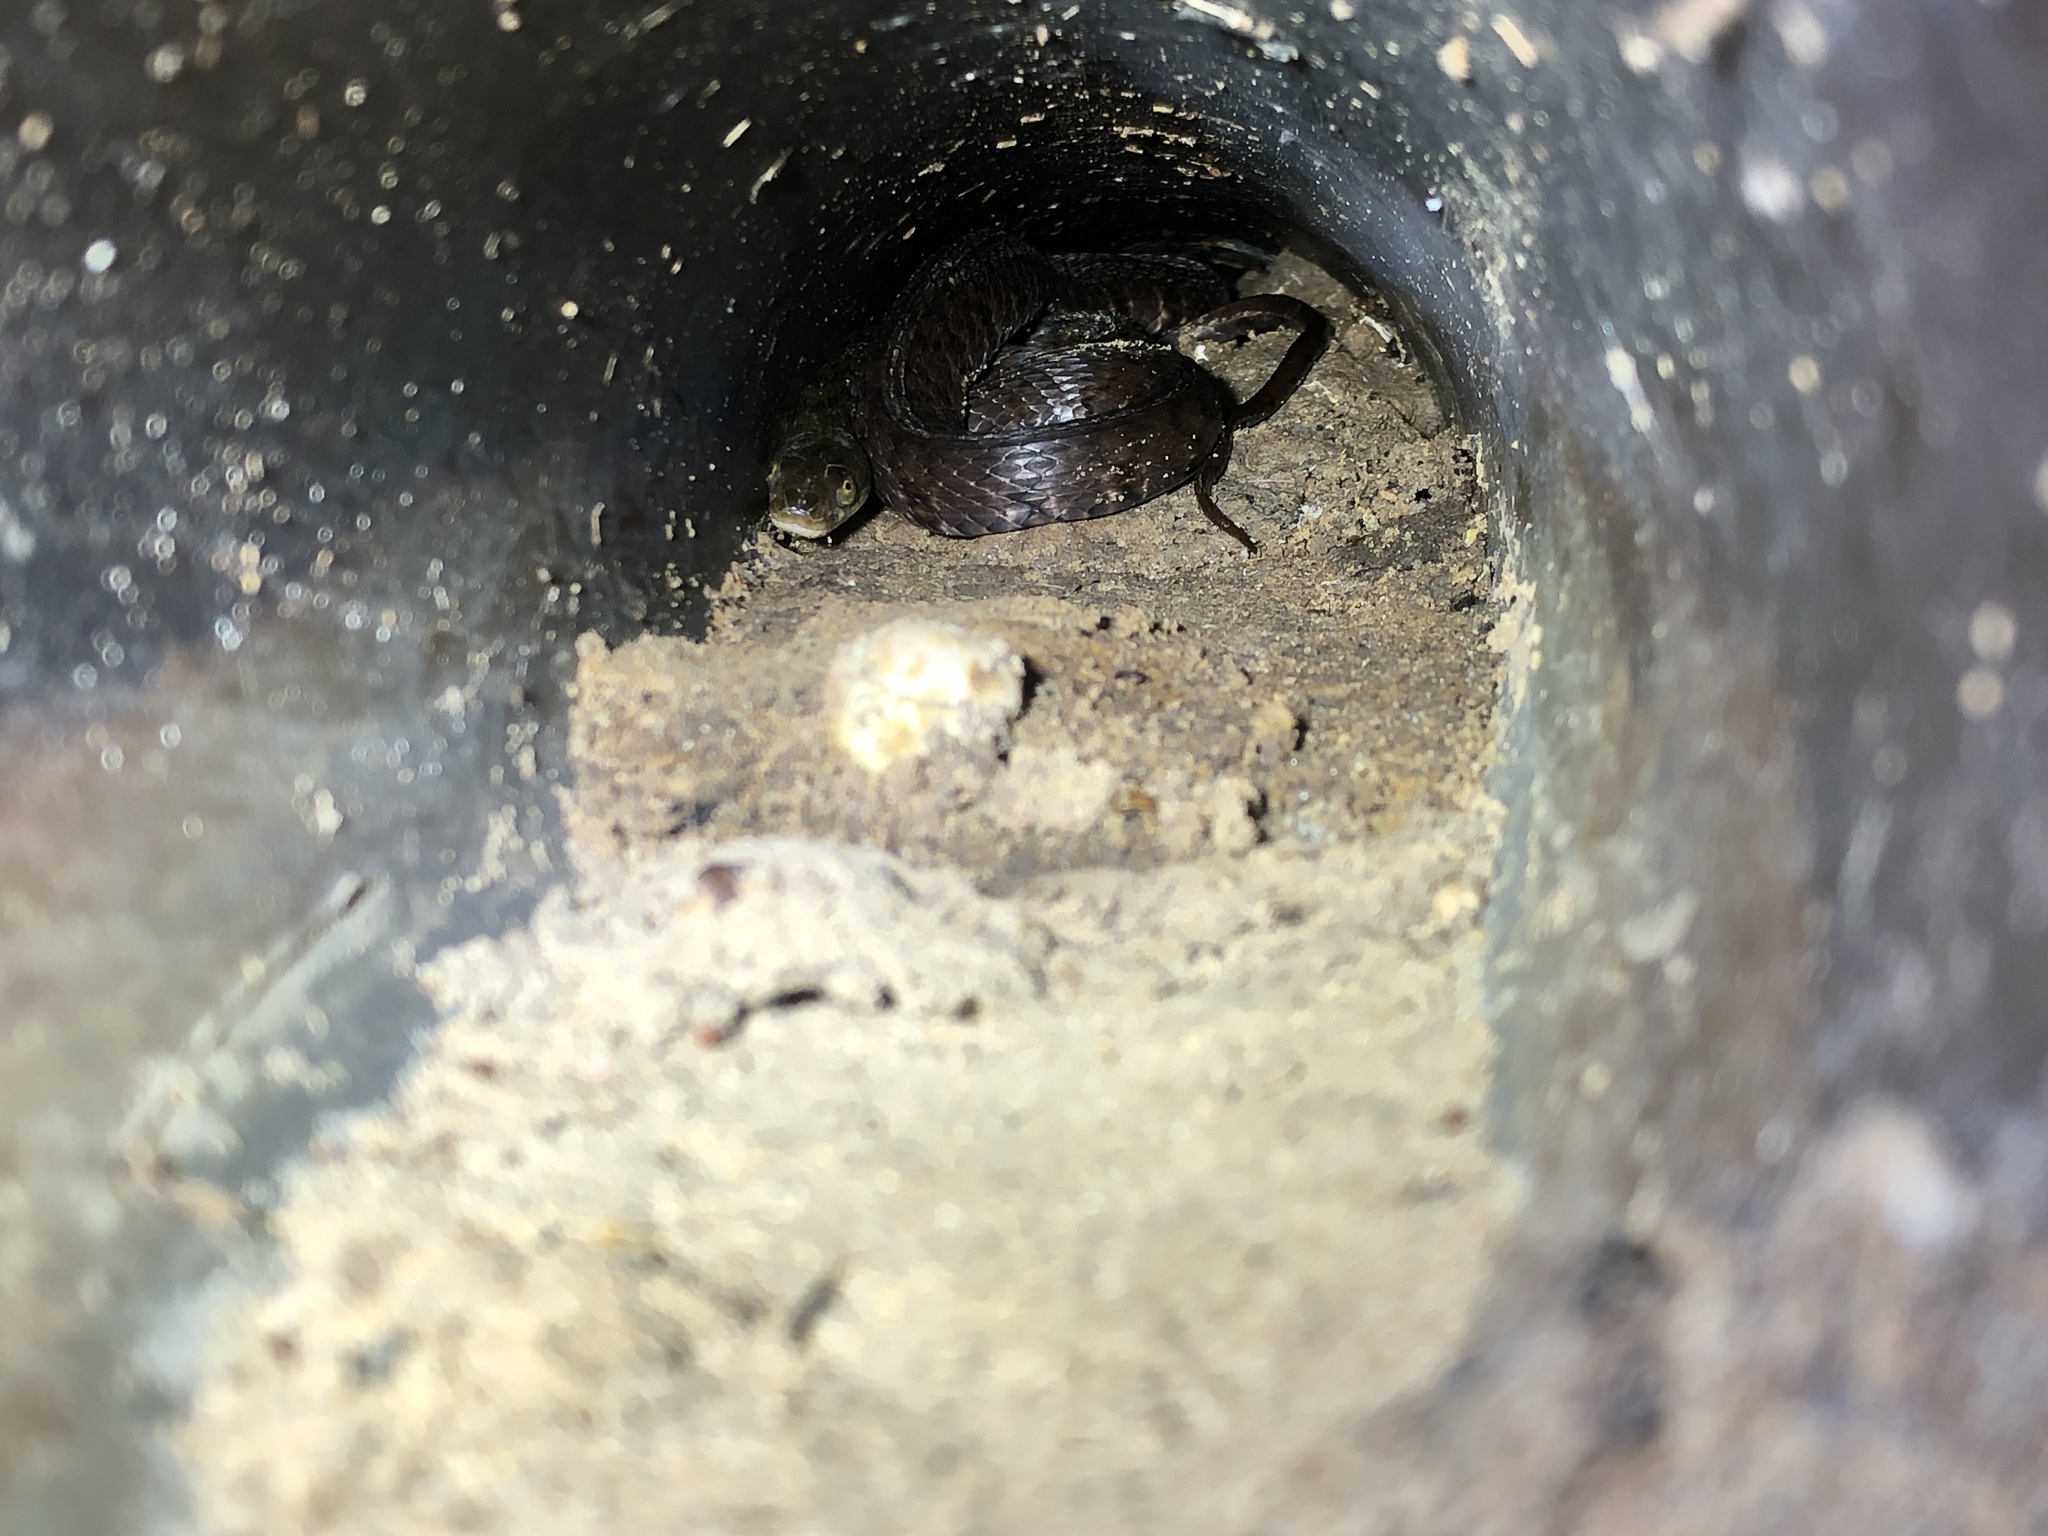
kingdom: Animalia
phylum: Chordata
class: Squamata
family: Colubridae
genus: Trimerodytes
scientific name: Trimerodytes percarinatus
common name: Eastern water snake
